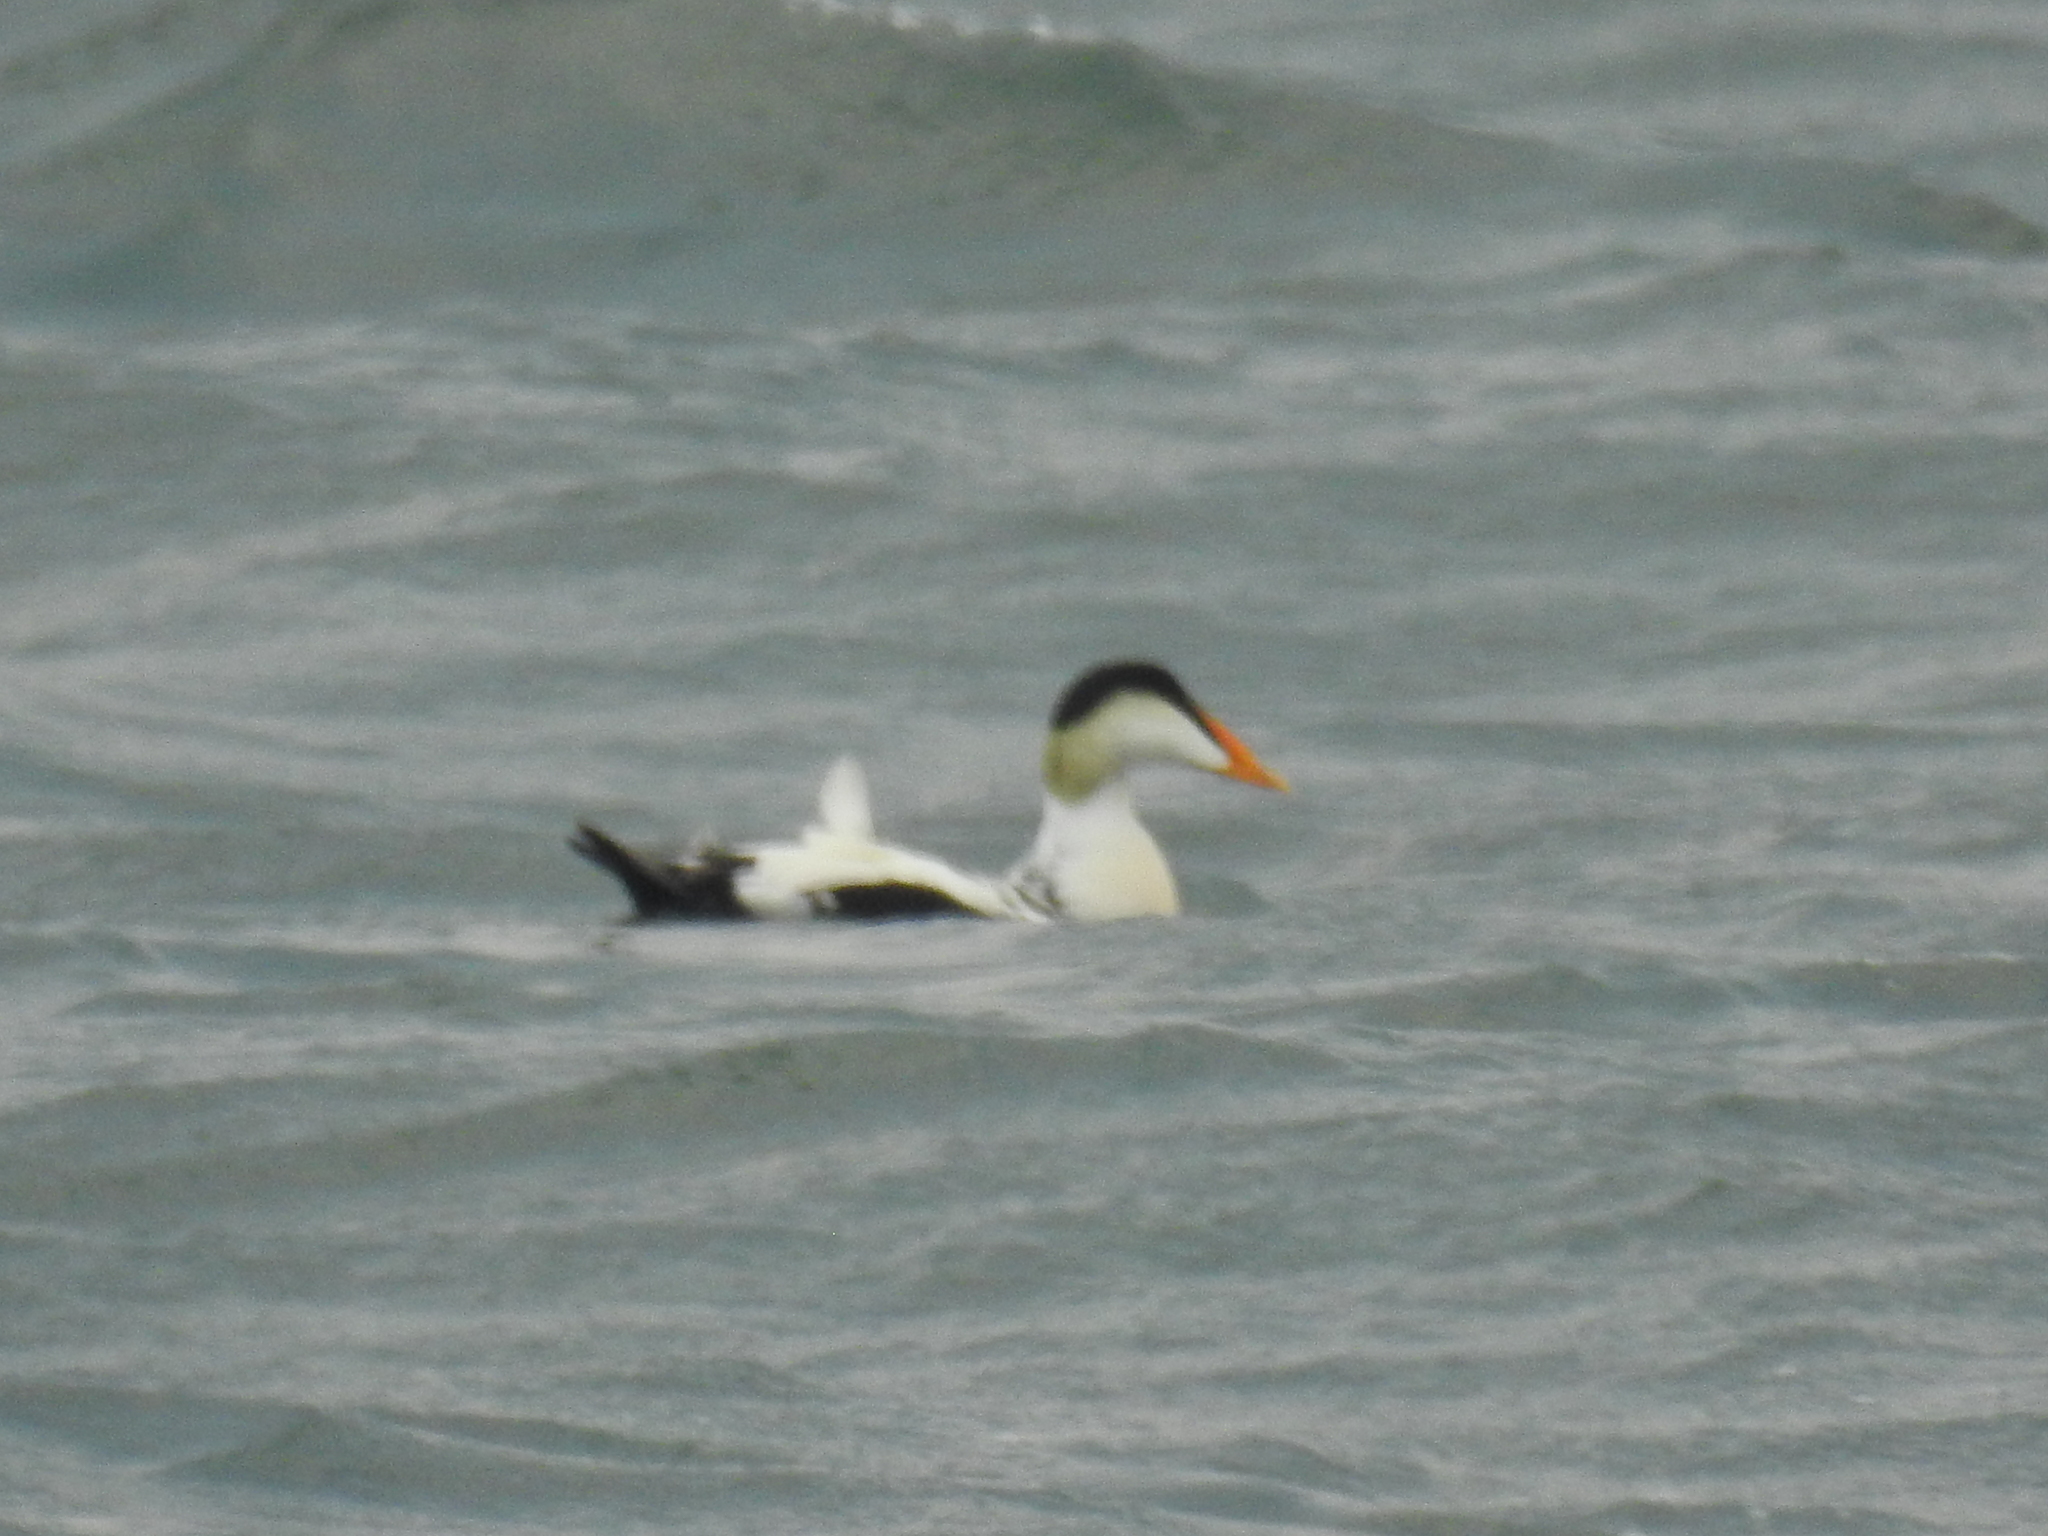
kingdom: Animalia
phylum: Chordata
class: Aves
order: Anseriformes
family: Anatidae
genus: Somateria
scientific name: Somateria mollissima
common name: Common eider
